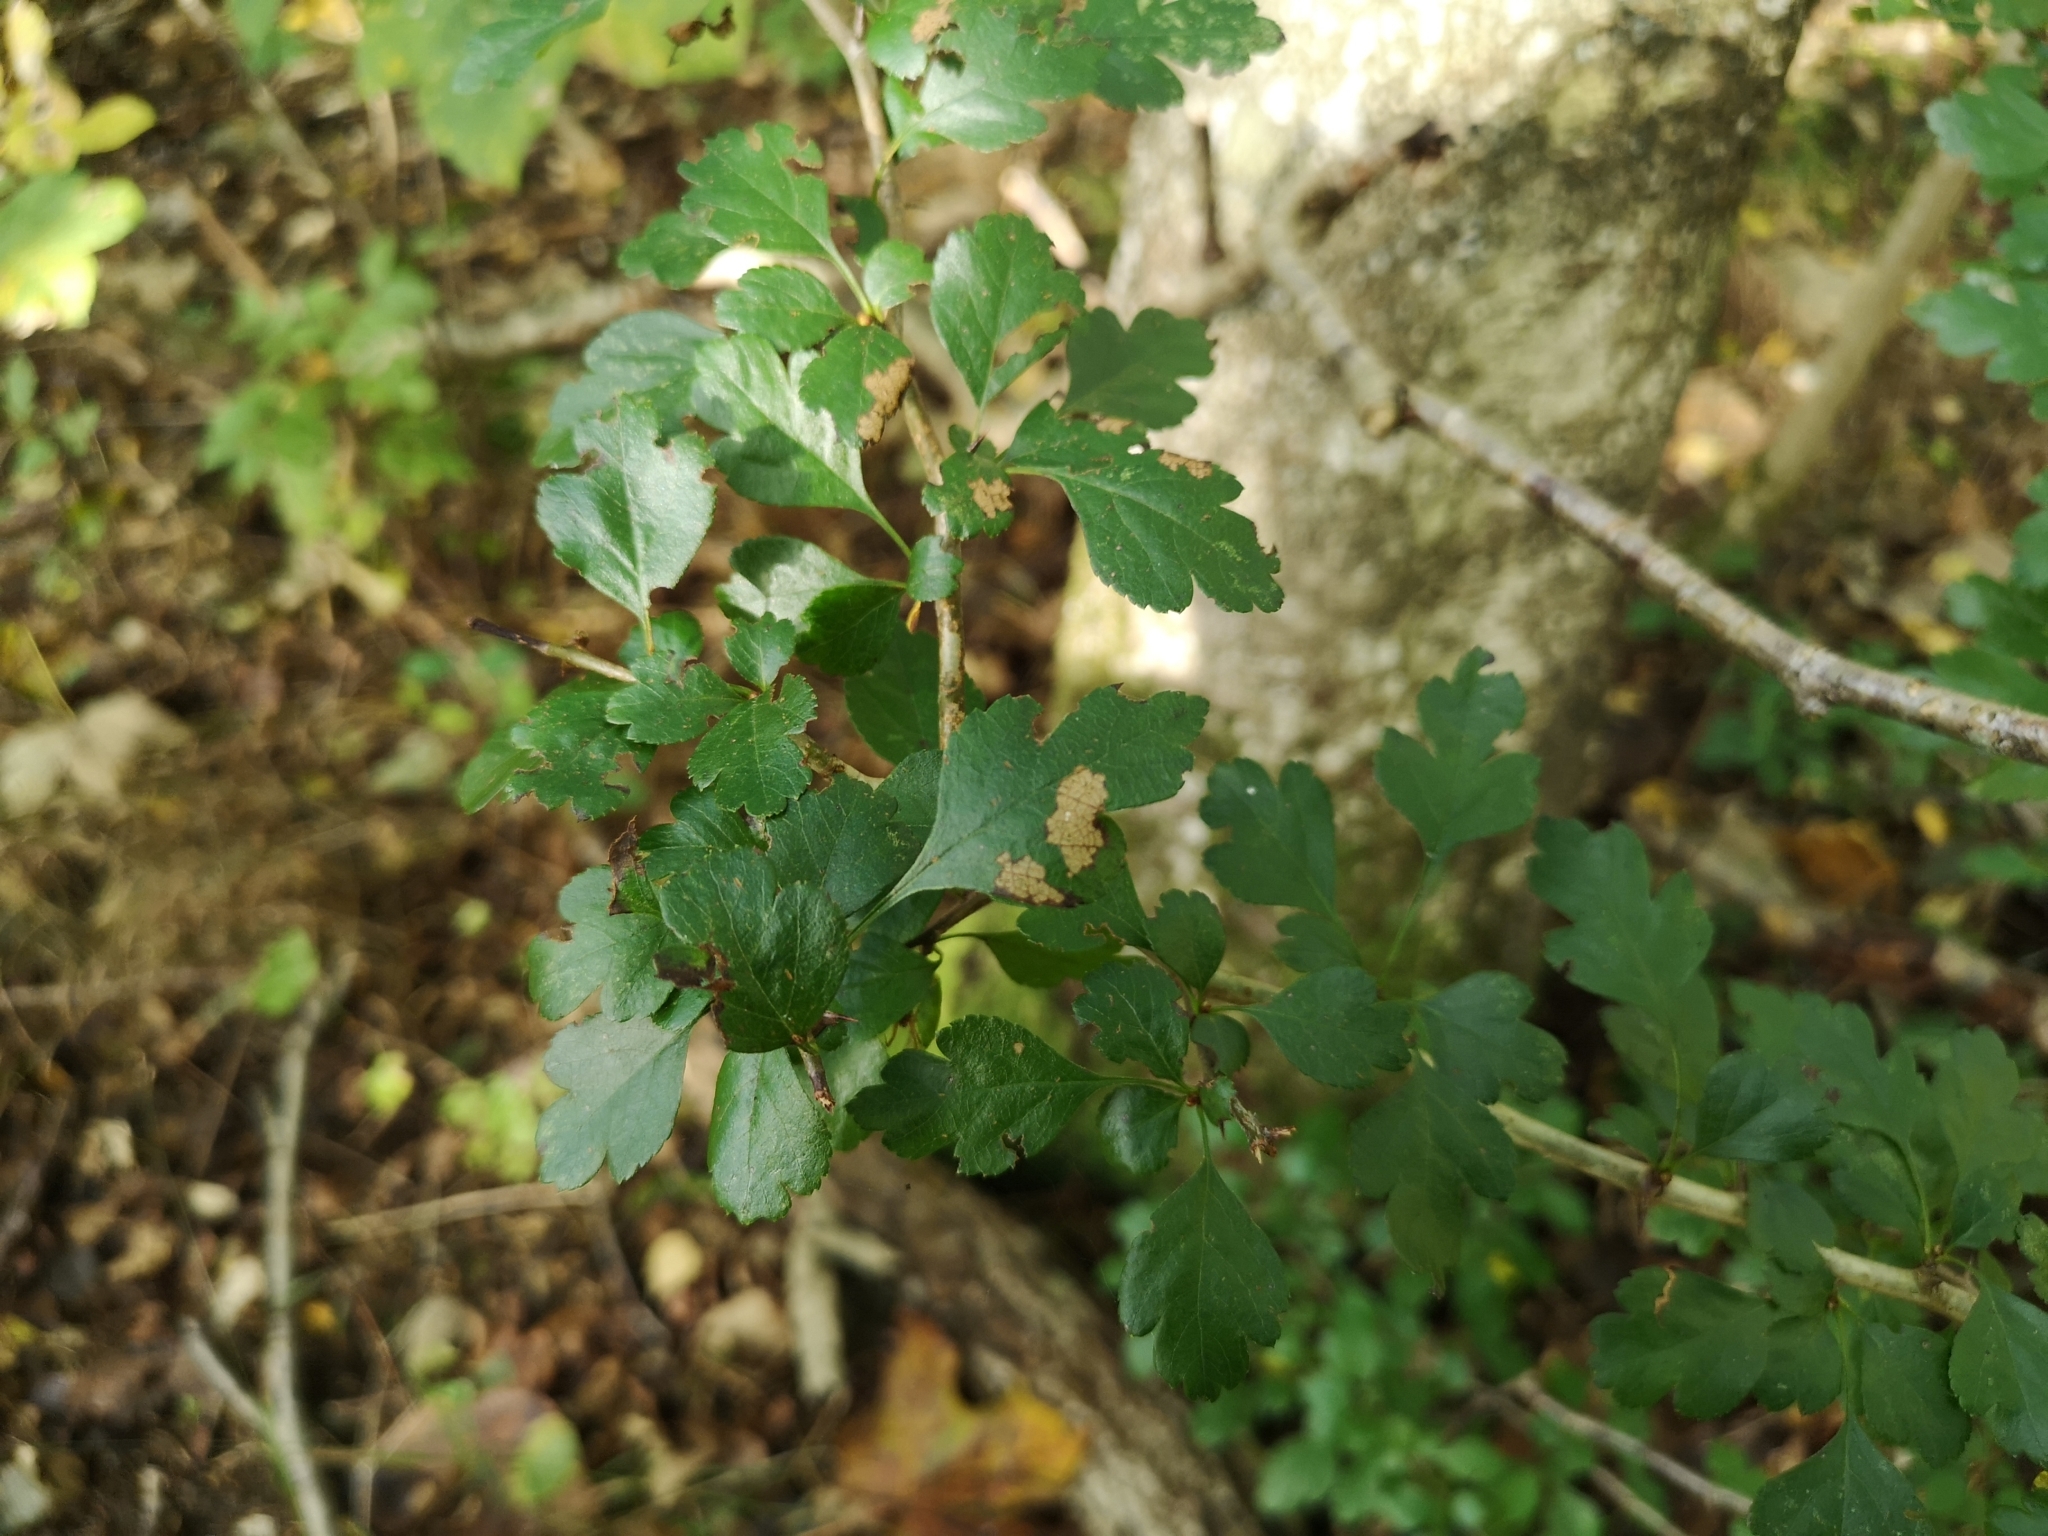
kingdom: Plantae
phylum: Tracheophyta
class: Magnoliopsida
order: Rosales
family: Rosaceae
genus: Crataegus
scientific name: Crataegus laevigata
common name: Midland hawthorn
